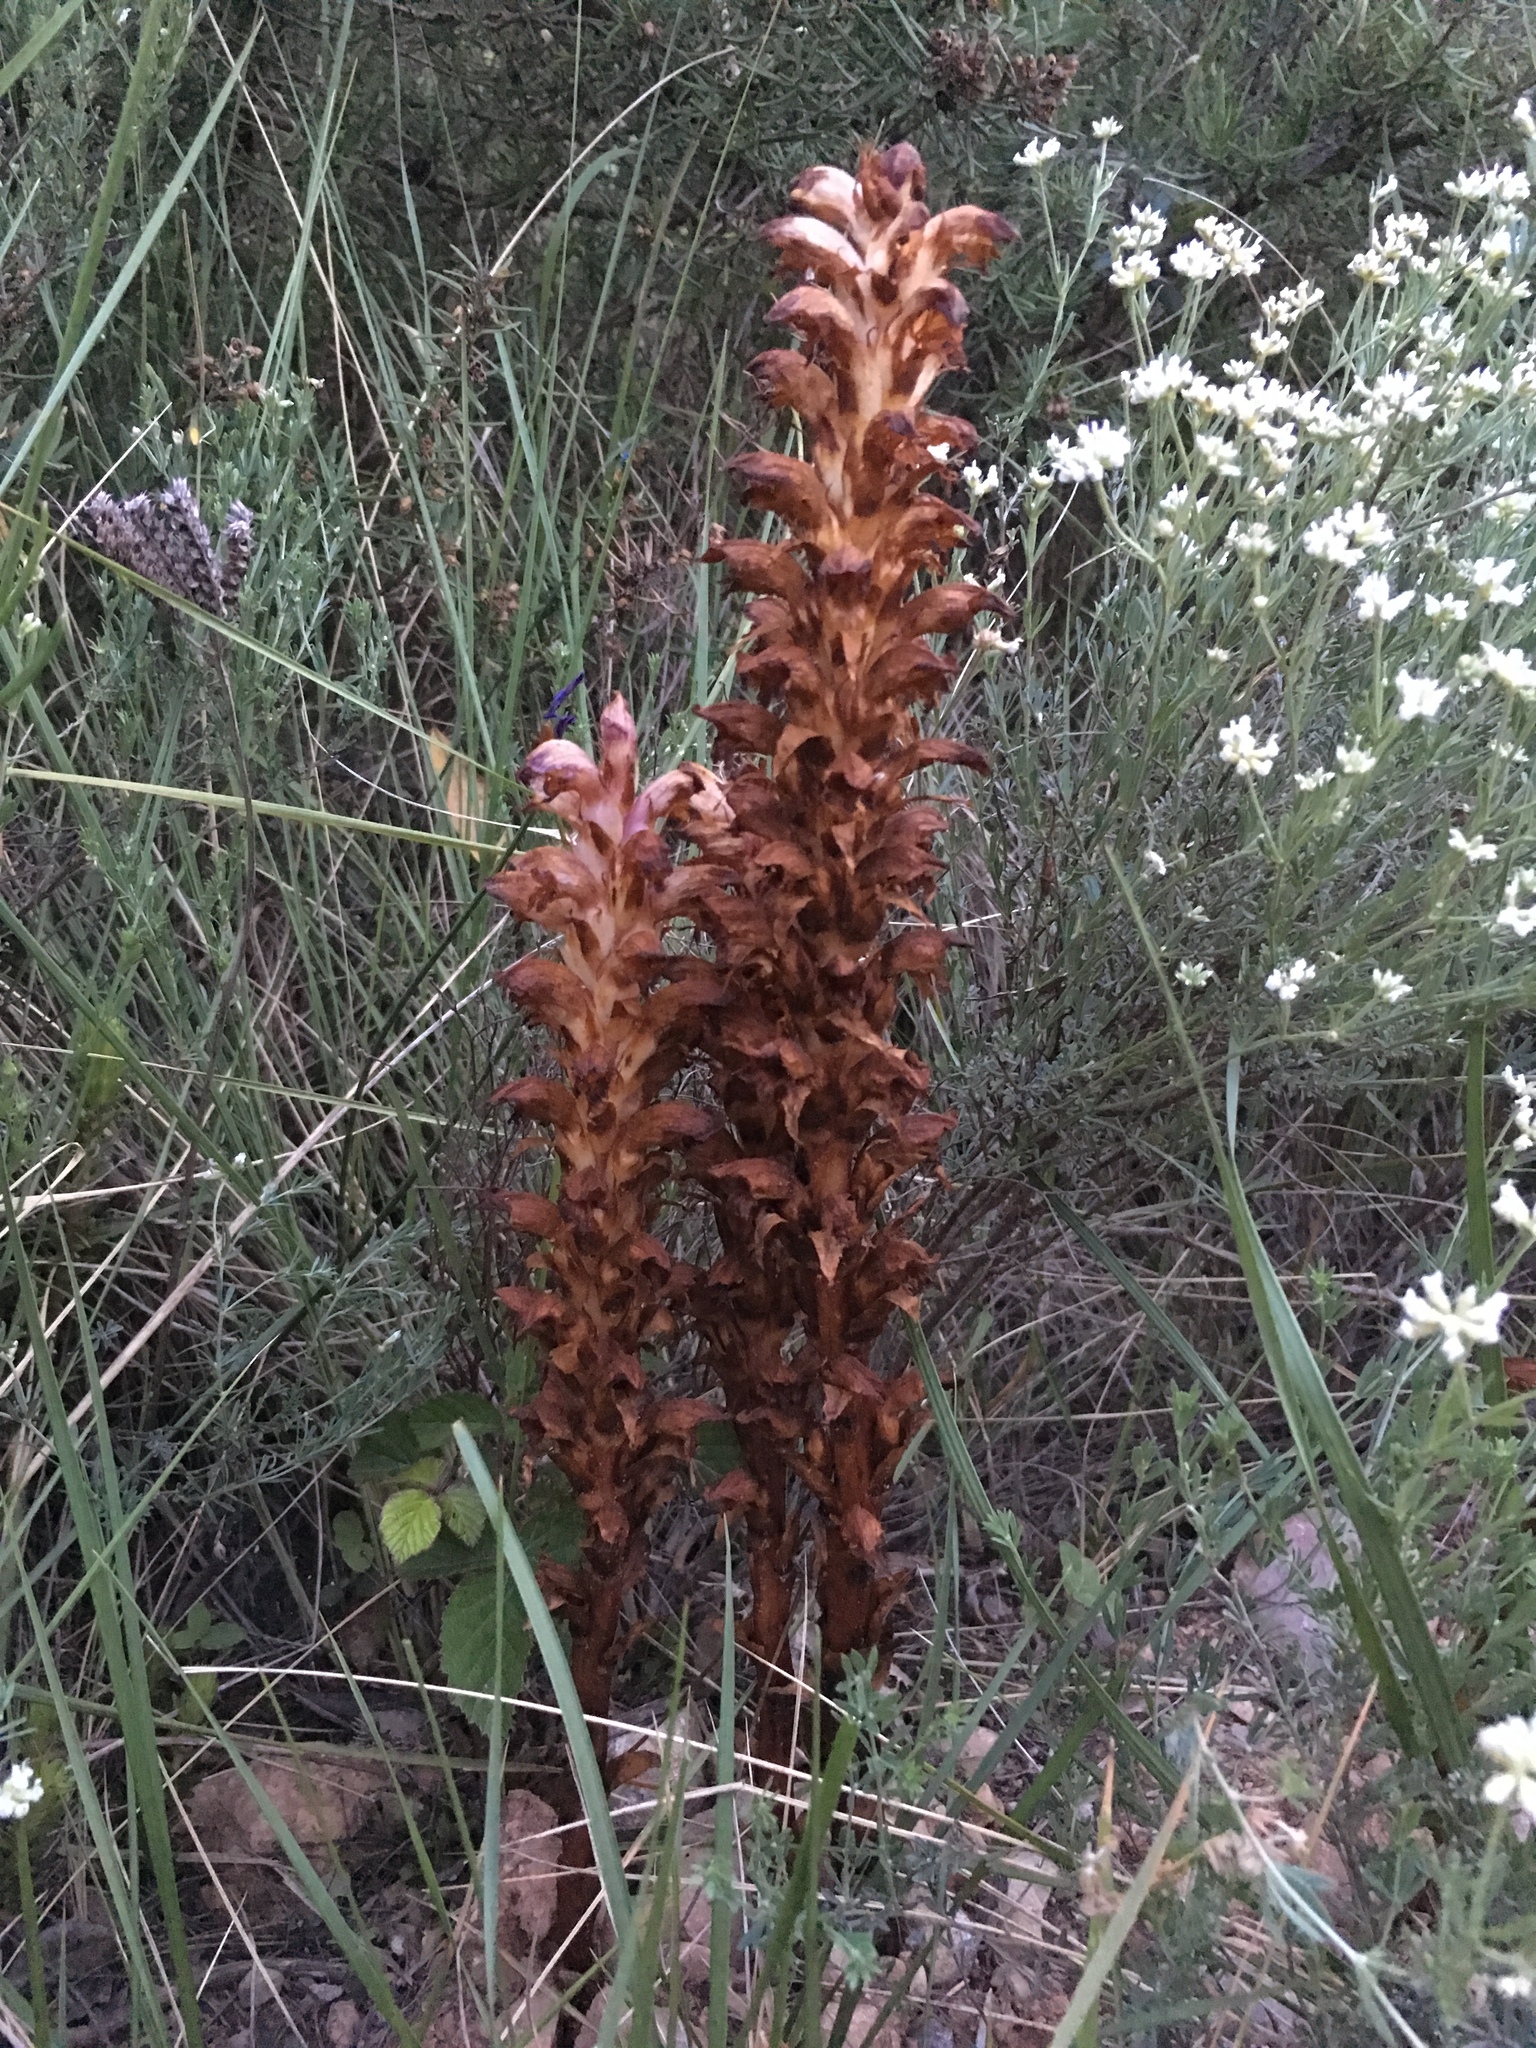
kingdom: Plantae
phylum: Tracheophyta
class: Magnoliopsida
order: Lamiales
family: Orobanchaceae
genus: Boulardia
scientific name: Boulardia latisquama
